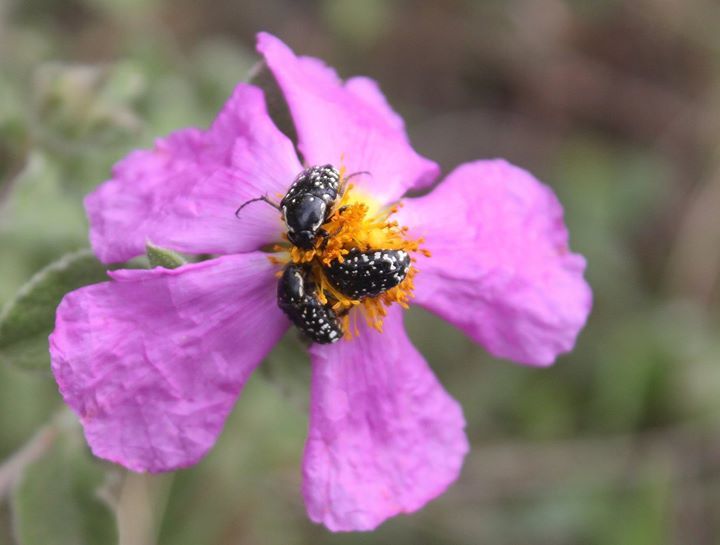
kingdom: Animalia
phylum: Arthropoda
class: Insecta
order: Coleoptera
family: Scarabaeidae
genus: Oxythyrea
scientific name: Oxythyrea funesta
